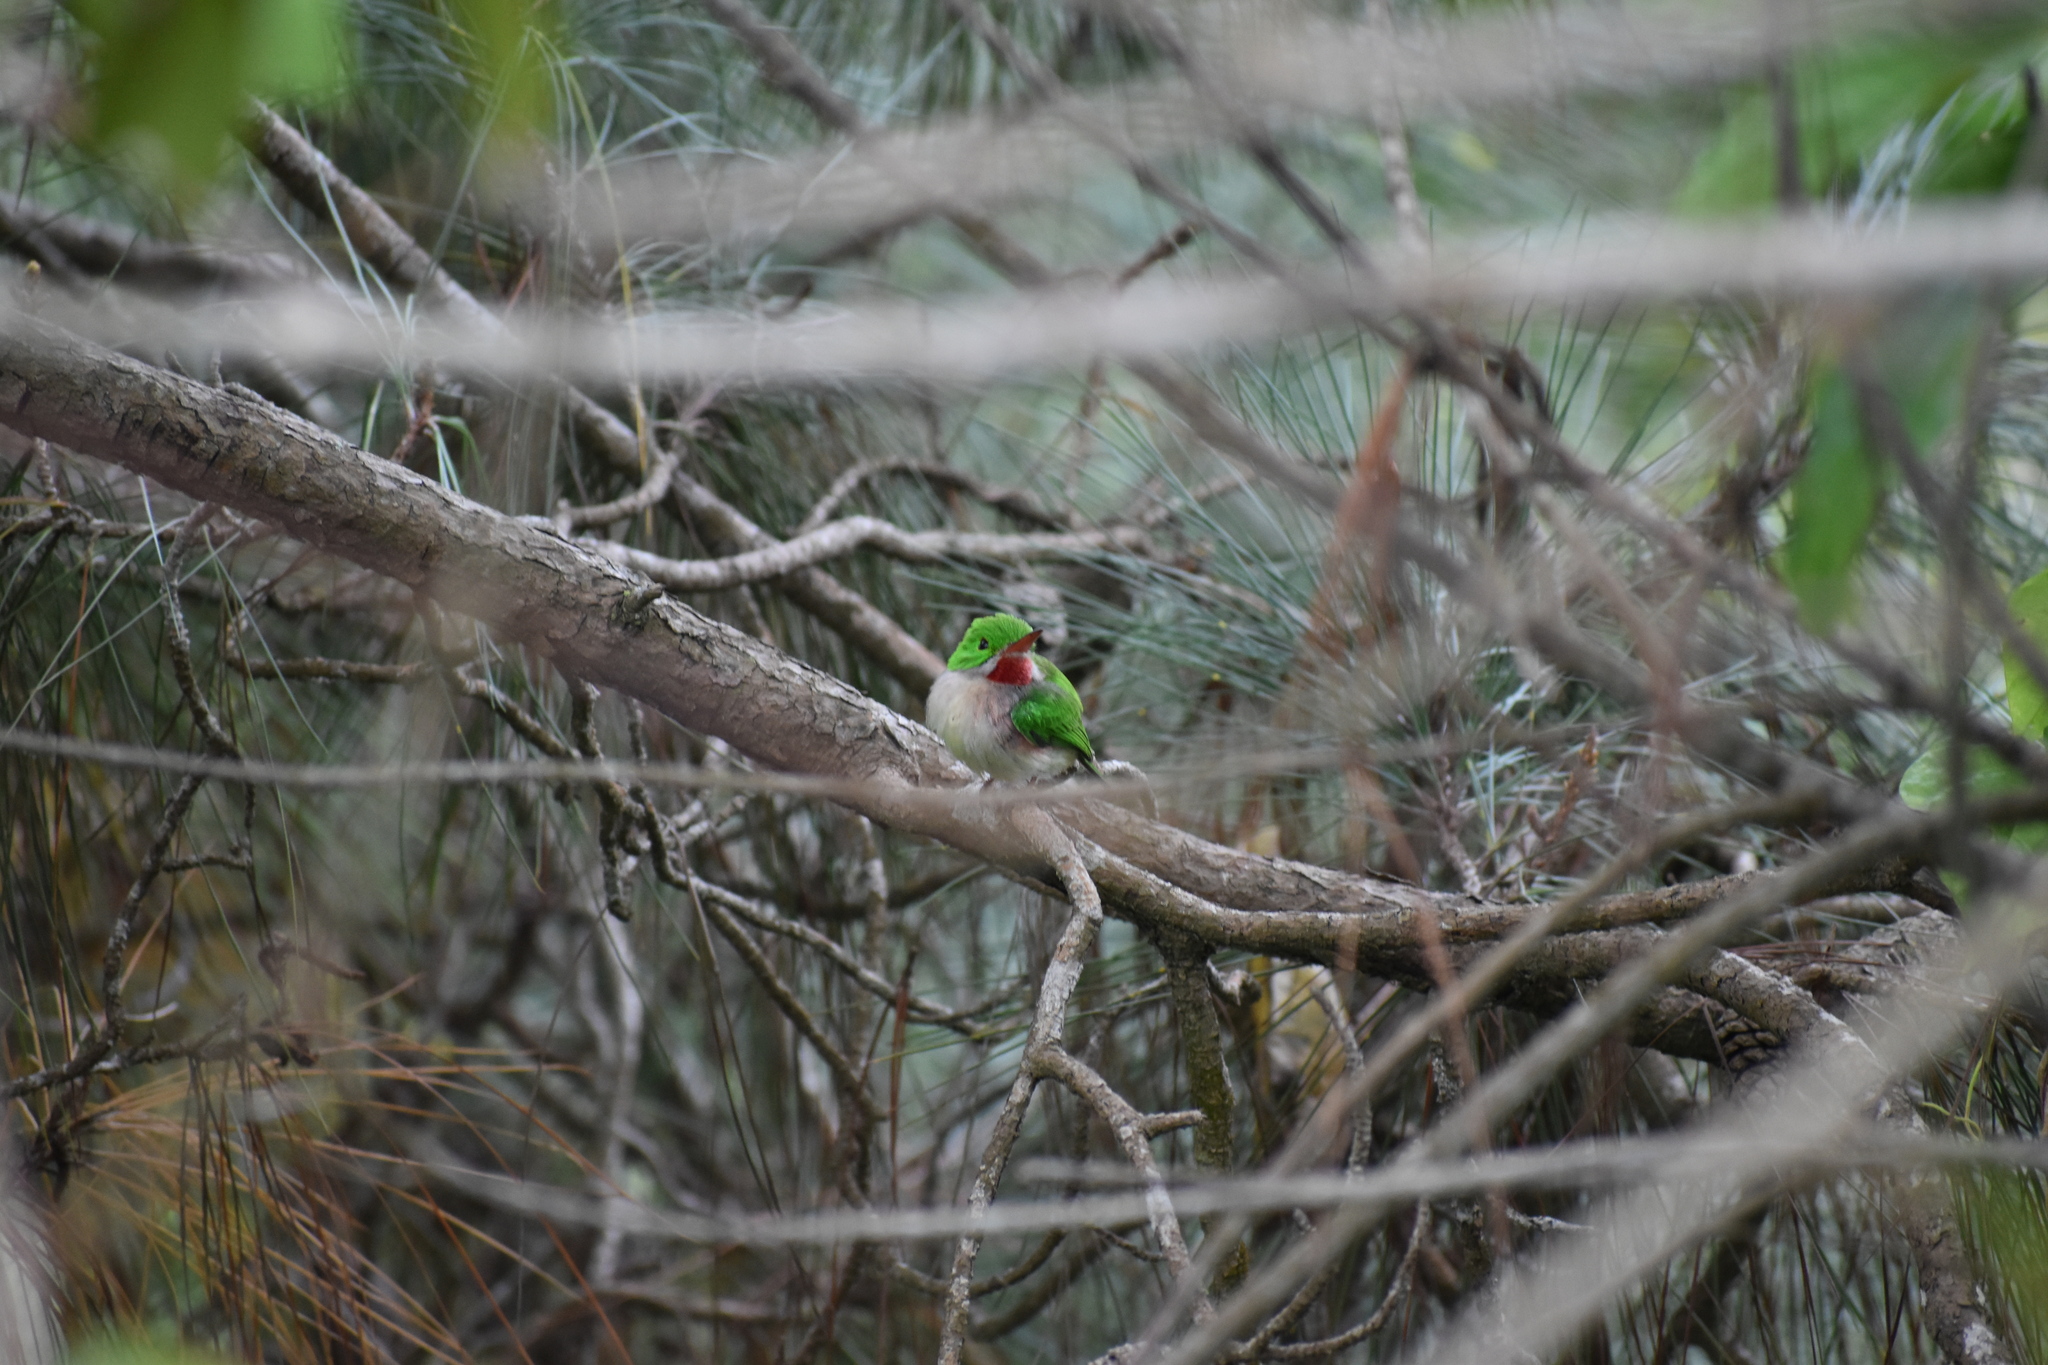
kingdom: Animalia
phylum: Chordata
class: Aves
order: Coraciiformes
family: Todidae
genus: Todus
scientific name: Todus subulatus
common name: Broad-billed tody
